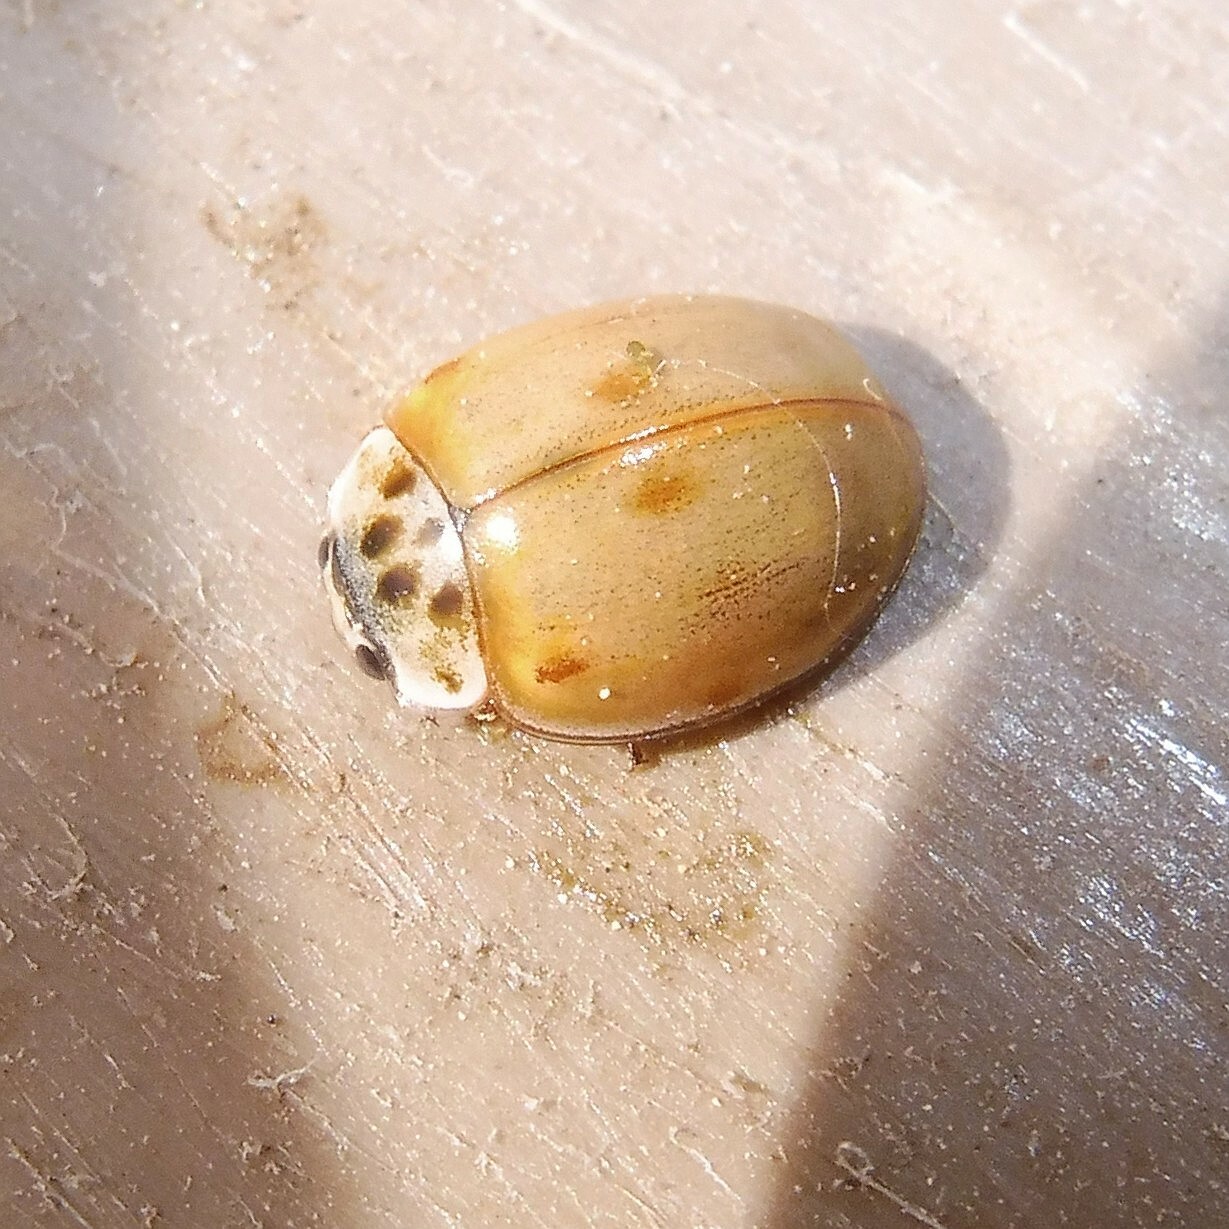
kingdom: Animalia
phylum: Arthropoda
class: Insecta
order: Coleoptera
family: Coccinellidae
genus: Adalia
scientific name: Adalia decempunctata
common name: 10-spot ladybird
